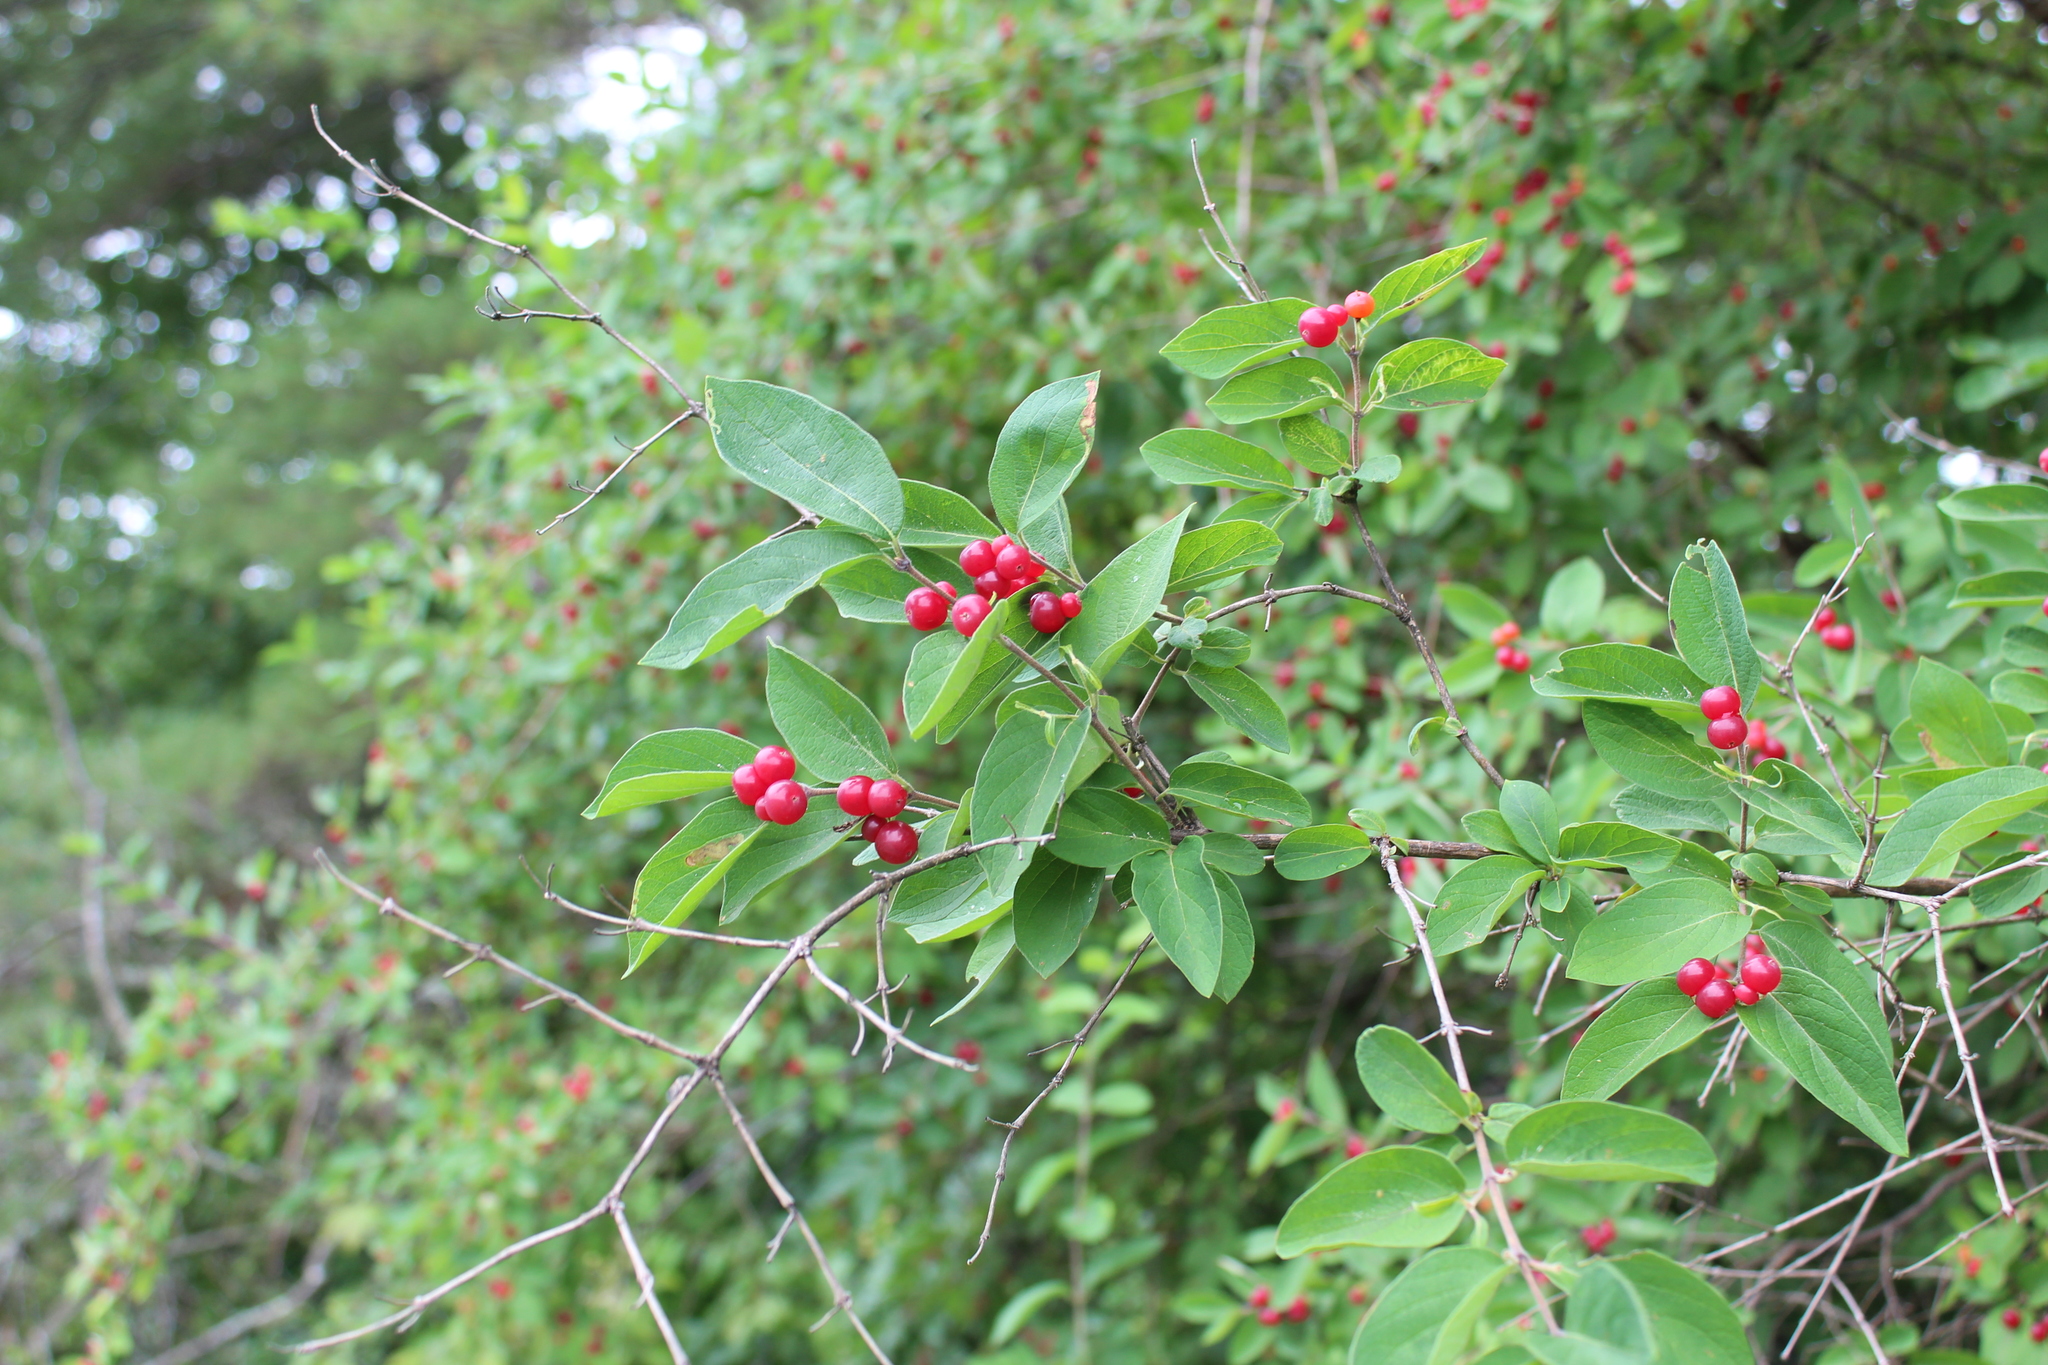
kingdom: Plantae
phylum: Tracheophyta
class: Magnoliopsida
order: Dipsacales
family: Caprifoliaceae
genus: Lonicera
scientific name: Lonicera morrowii
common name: Morrow's honeysuckle
